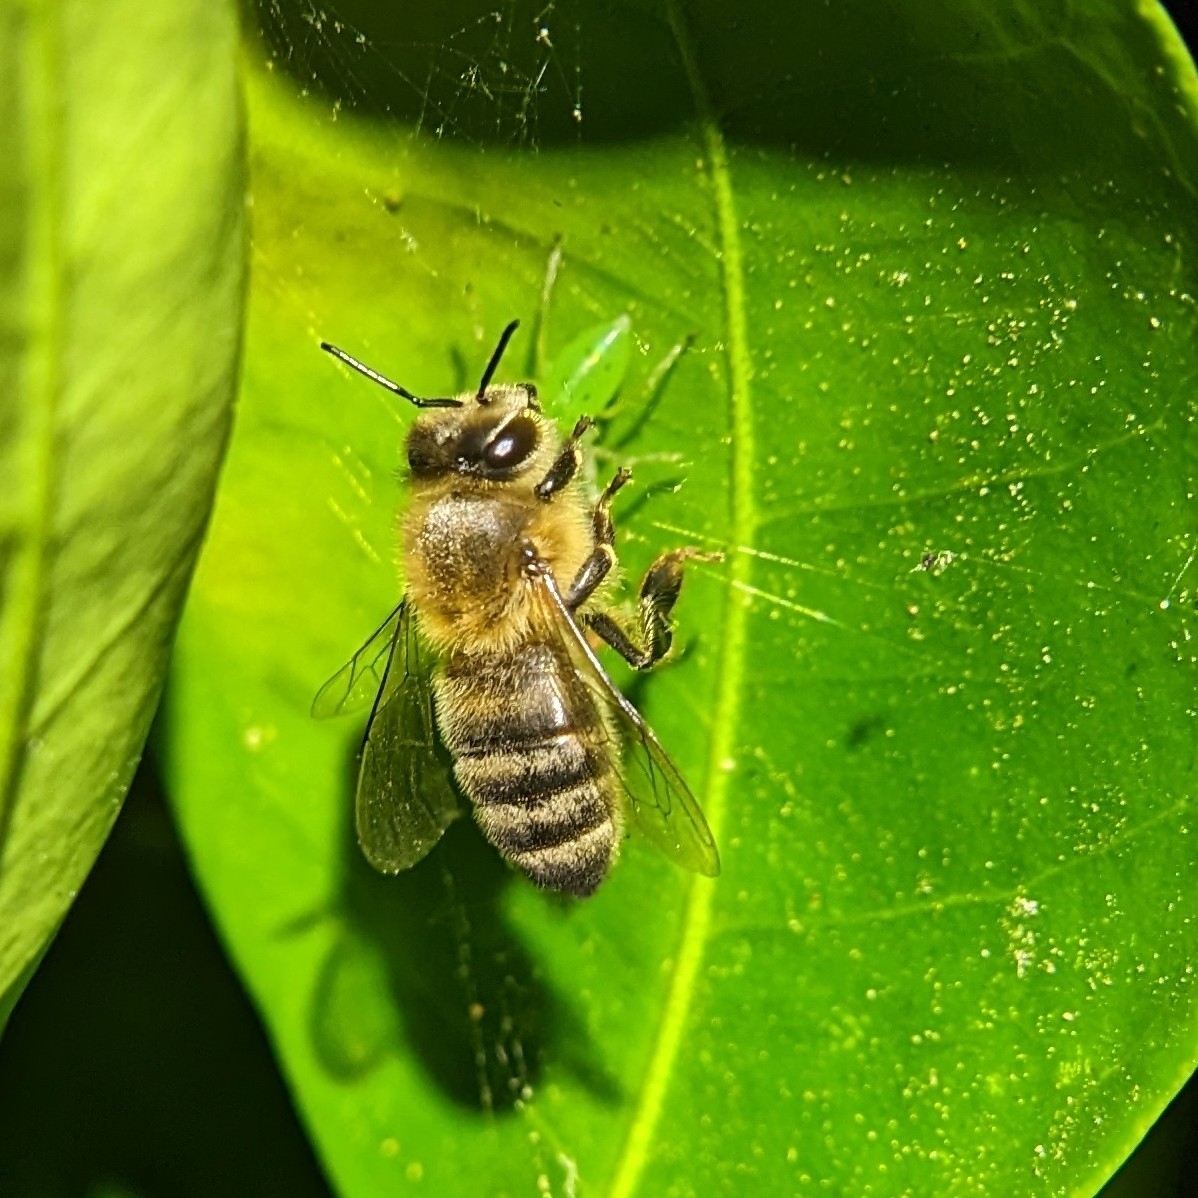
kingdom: Animalia
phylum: Arthropoda
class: Arachnida
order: Araneae
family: Salticidae
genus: Lyssomanes
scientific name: Lyssomanes viridis
